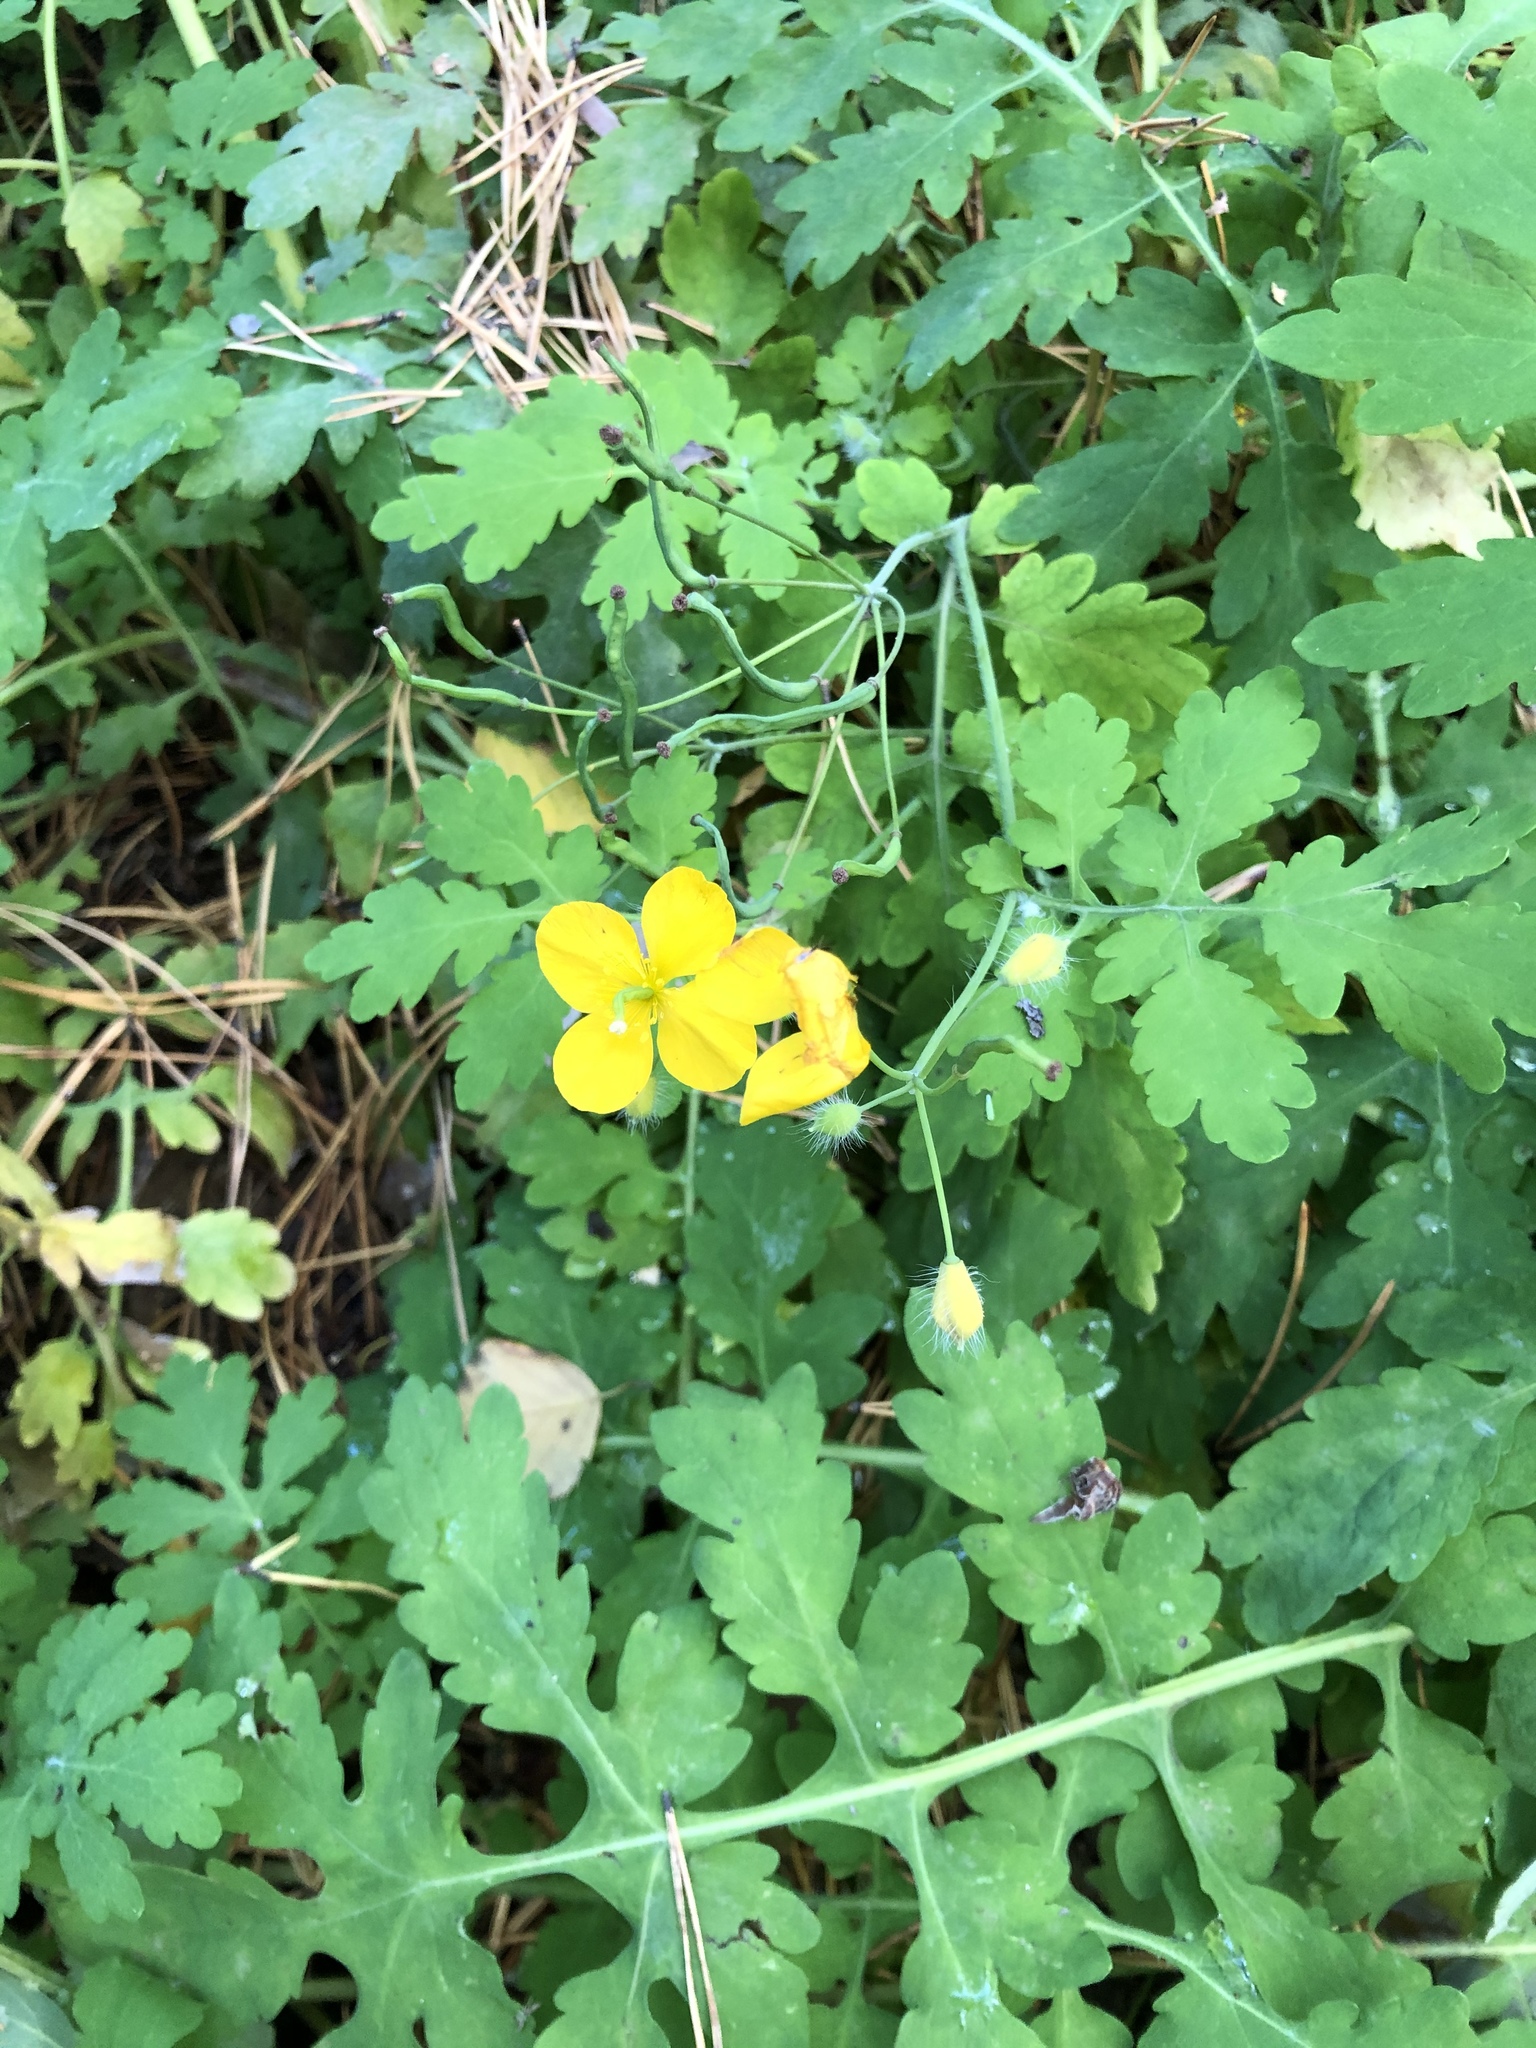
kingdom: Plantae
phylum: Tracheophyta
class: Magnoliopsida
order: Ranunculales
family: Papaveraceae
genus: Chelidonium
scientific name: Chelidonium majus
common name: Greater celandine
